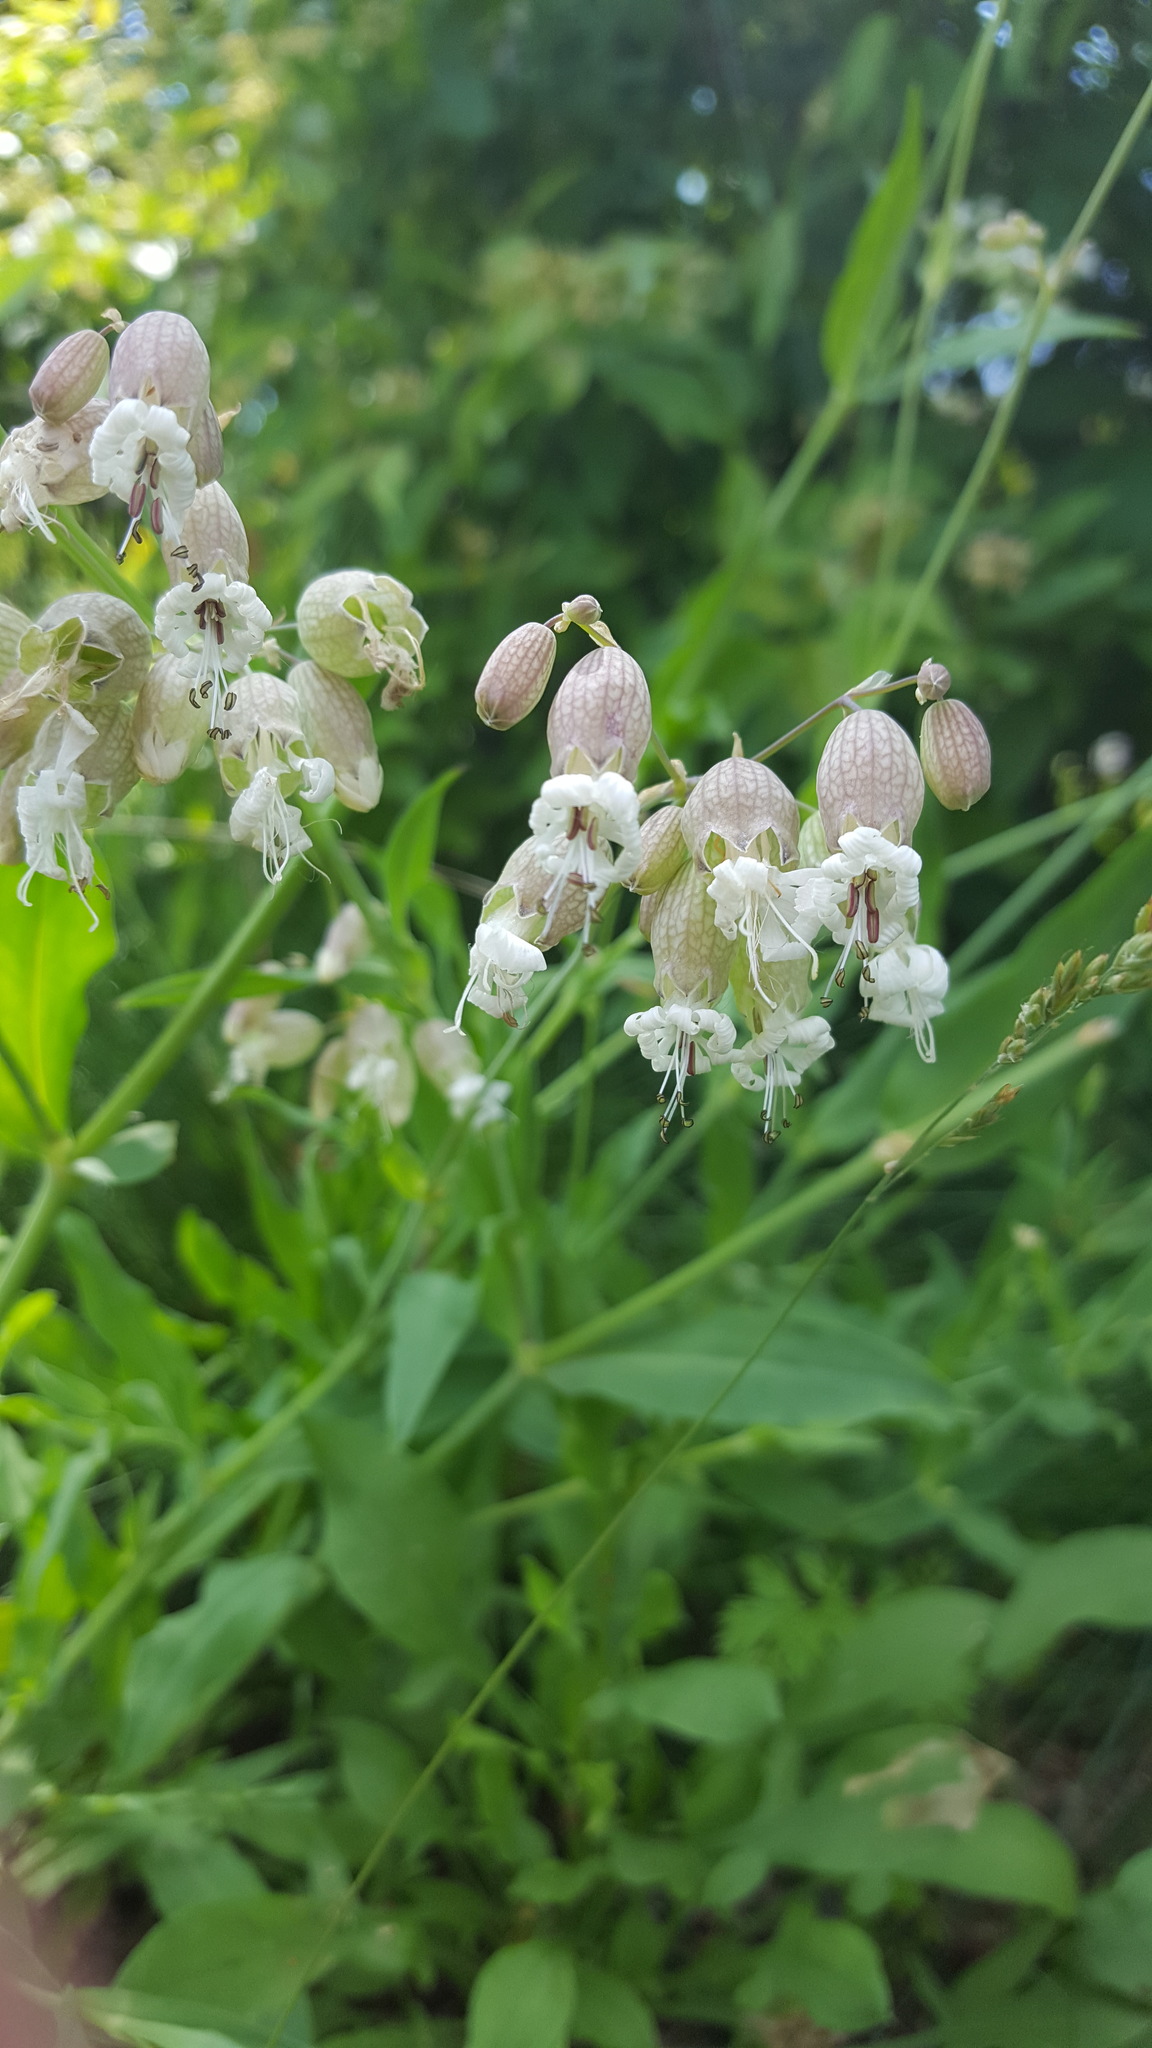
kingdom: Plantae
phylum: Tracheophyta
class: Magnoliopsida
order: Caryophyllales
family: Caryophyllaceae
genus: Silene
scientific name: Silene vulgaris
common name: Bladder campion
